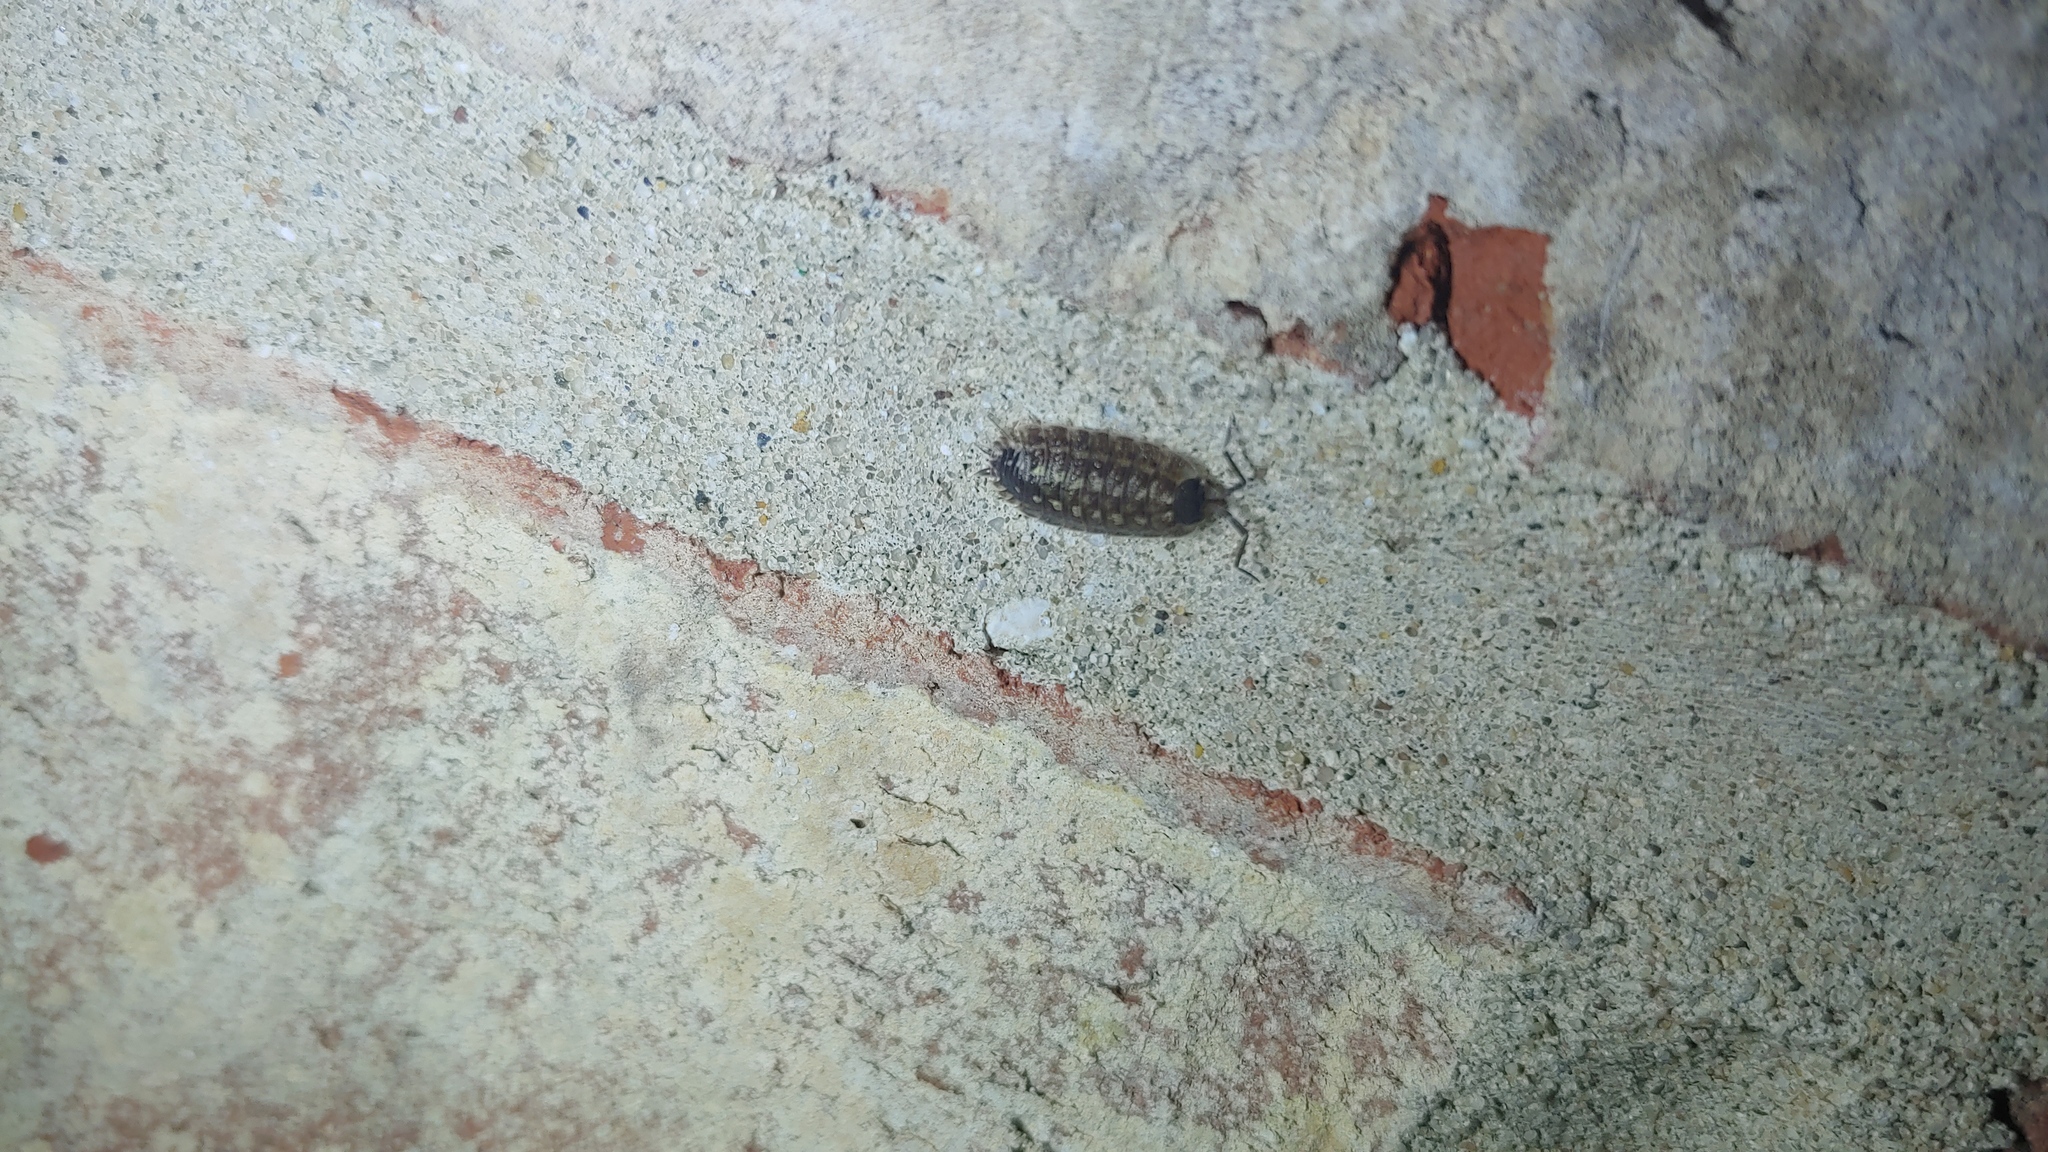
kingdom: Animalia
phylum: Arthropoda
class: Malacostraca
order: Isopoda
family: Porcellionidae
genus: Porcellio
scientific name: Porcellio spinicornis
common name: Painted woodlouse
